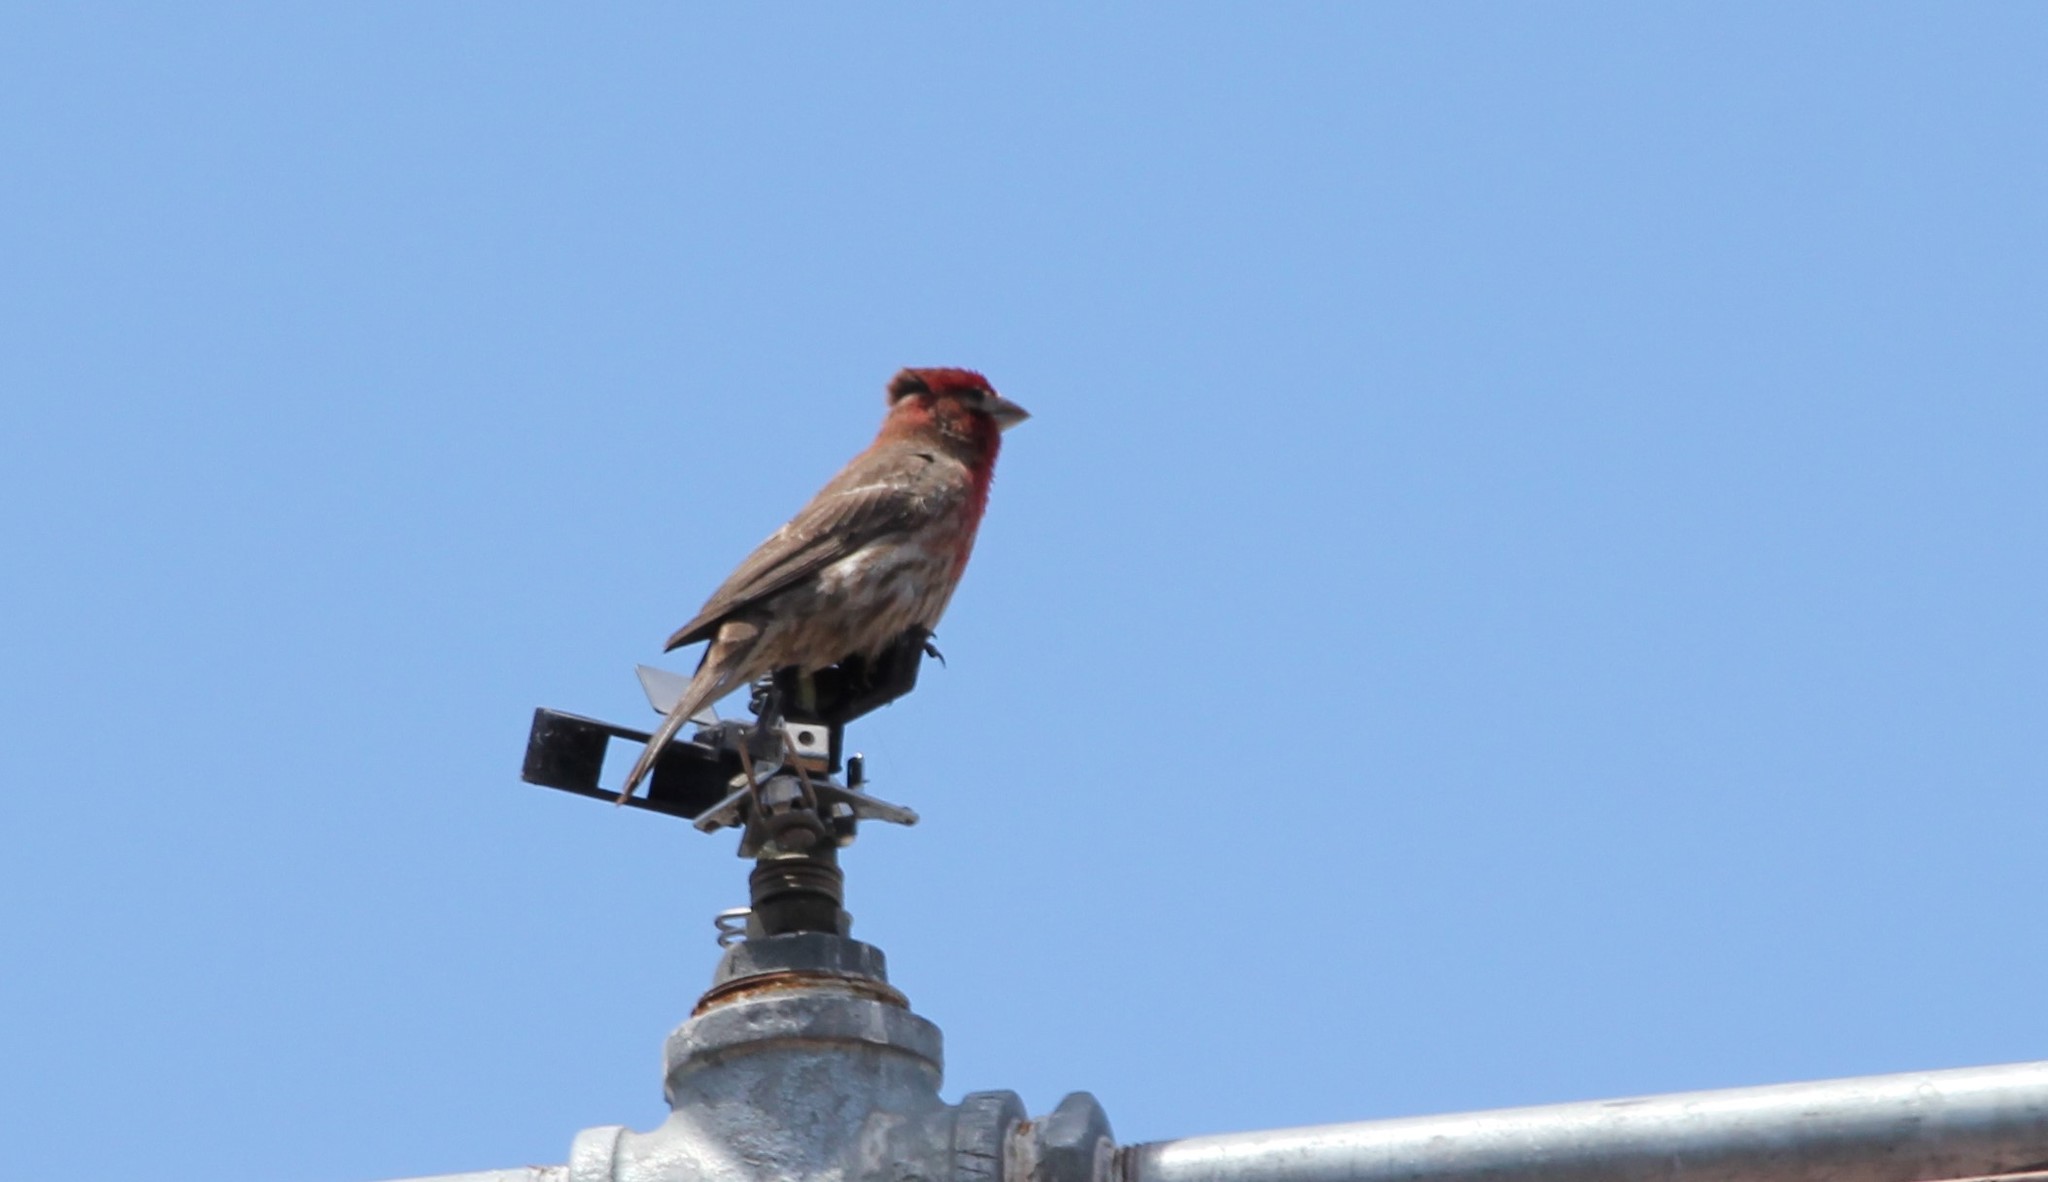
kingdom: Animalia
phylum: Chordata
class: Aves
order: Passeriformes
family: Fringillidae
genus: Haemorhous
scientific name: Haemorhous mexicanus
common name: House finch
